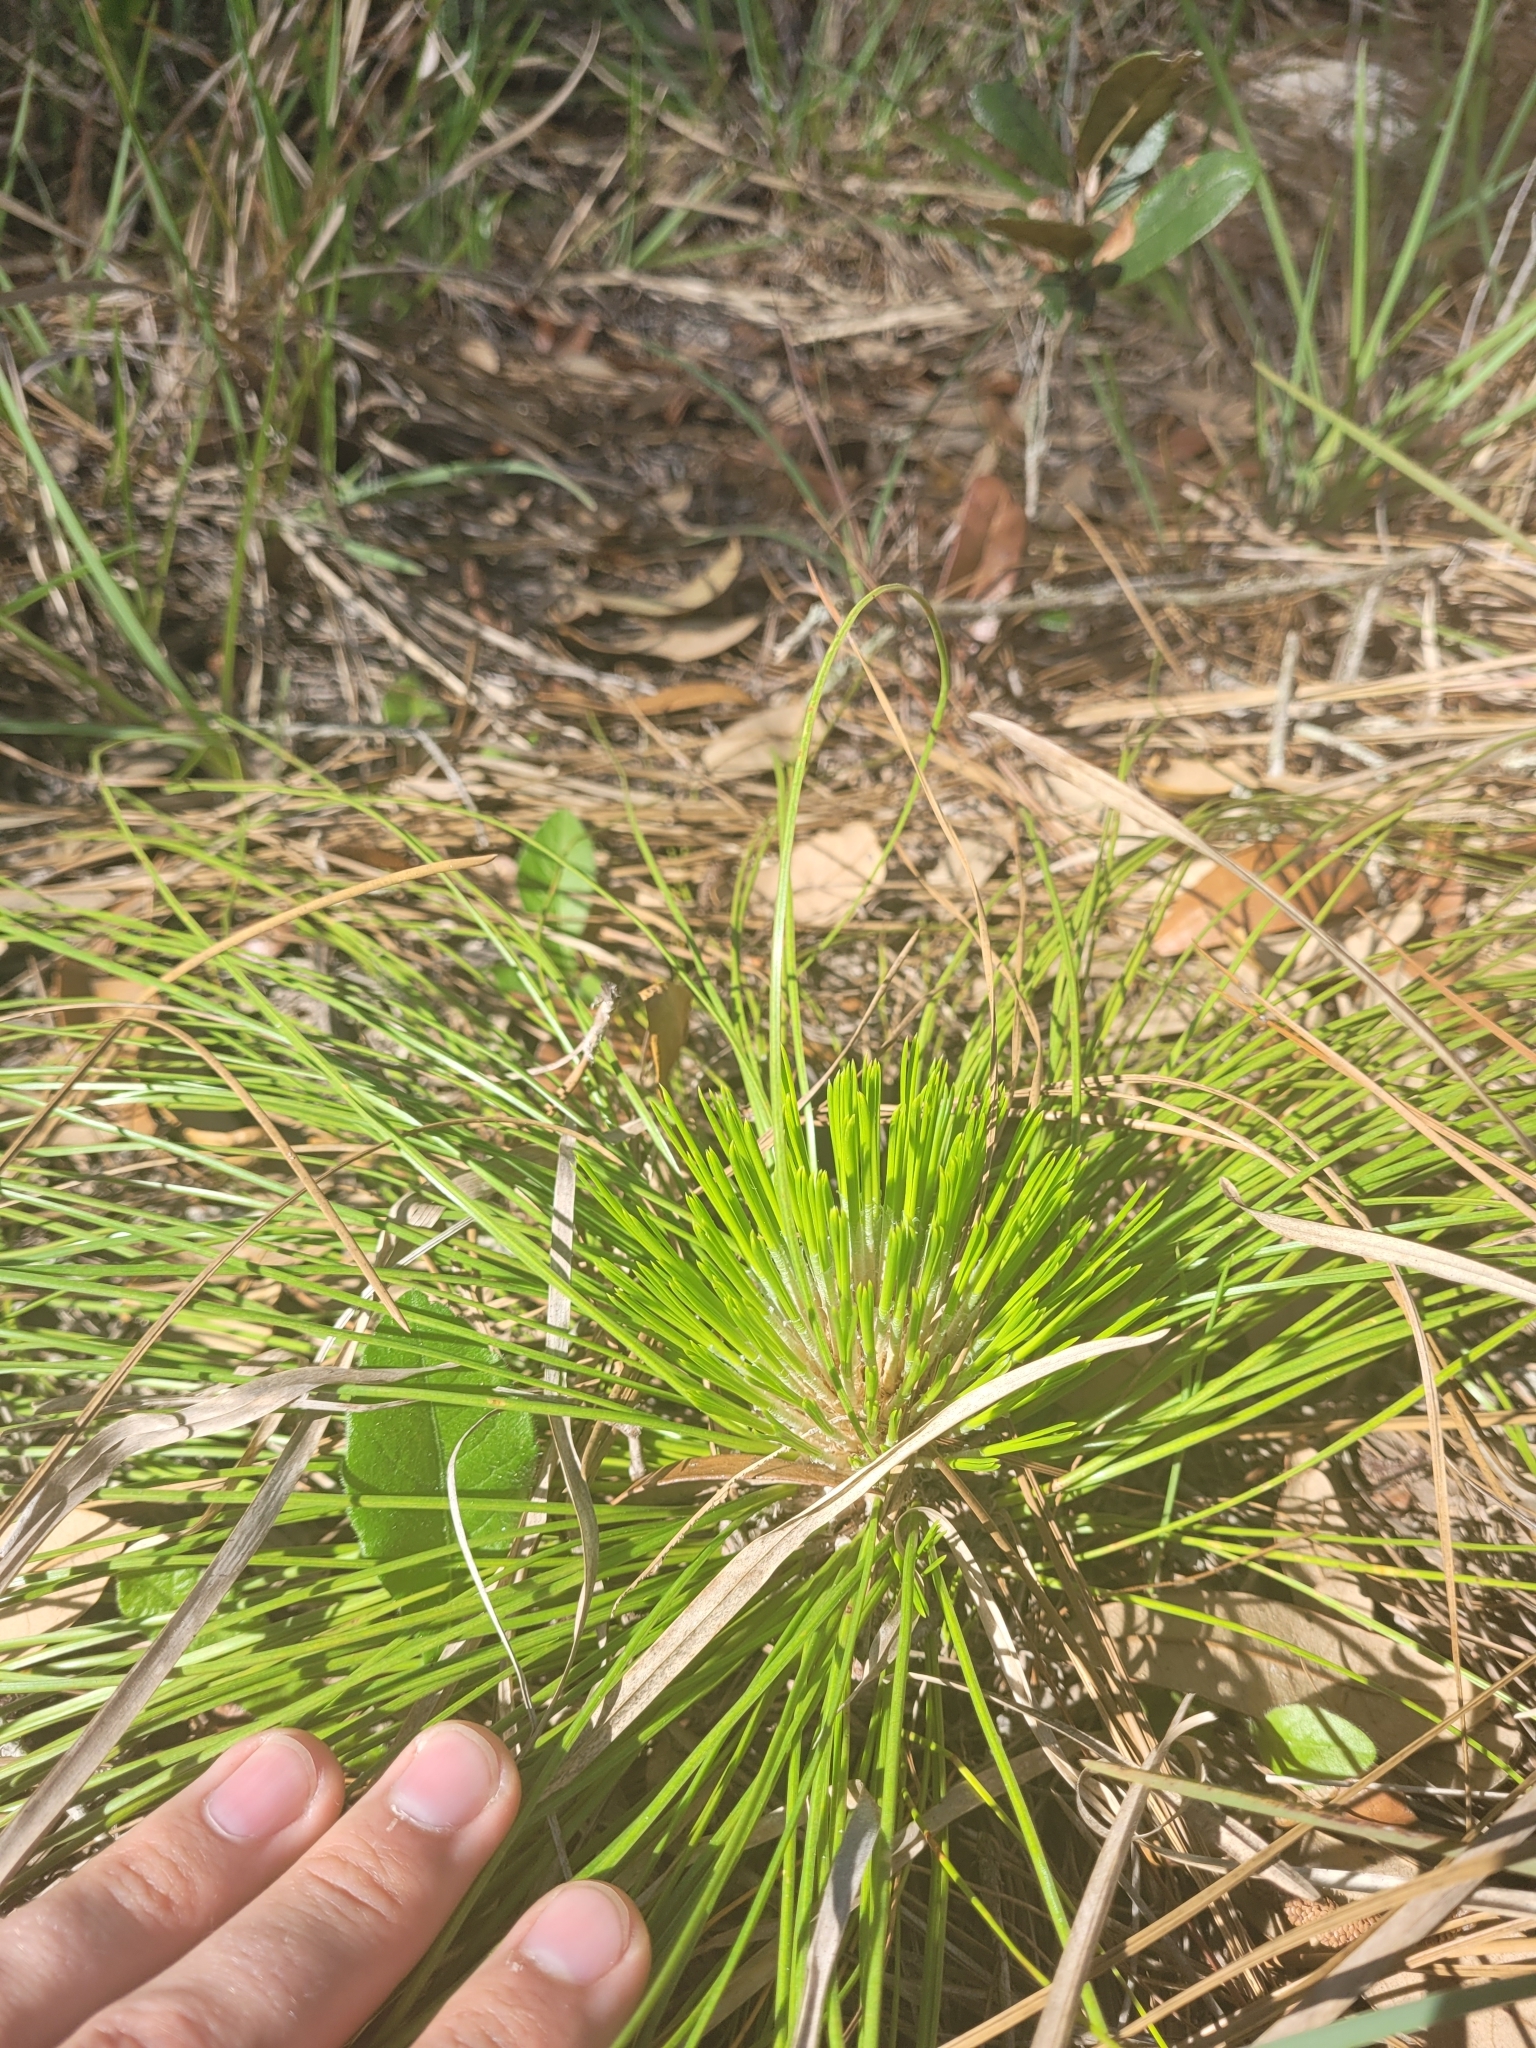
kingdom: Plantae
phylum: Tracheophyta
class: Pinopsida
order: Pinales
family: Pinaceae
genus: Pinus
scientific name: Pinus palustris
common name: Longleaf pine
